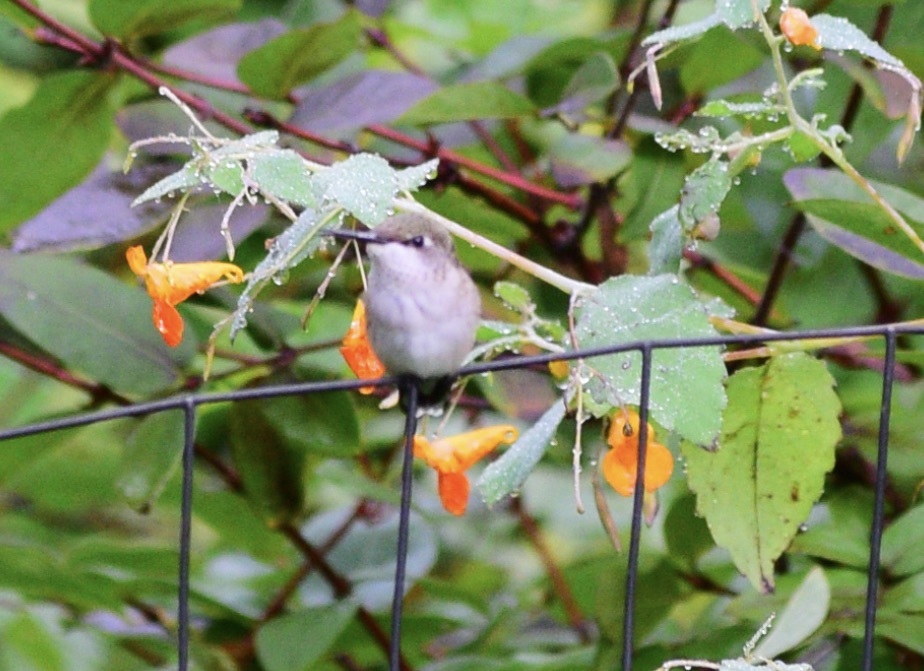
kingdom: Animalia
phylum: Chordata
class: Aves
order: Apodiformes
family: Trochilidae
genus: Archilochus
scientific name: Archilochus colubris
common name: Ruby-throated hummingbird
